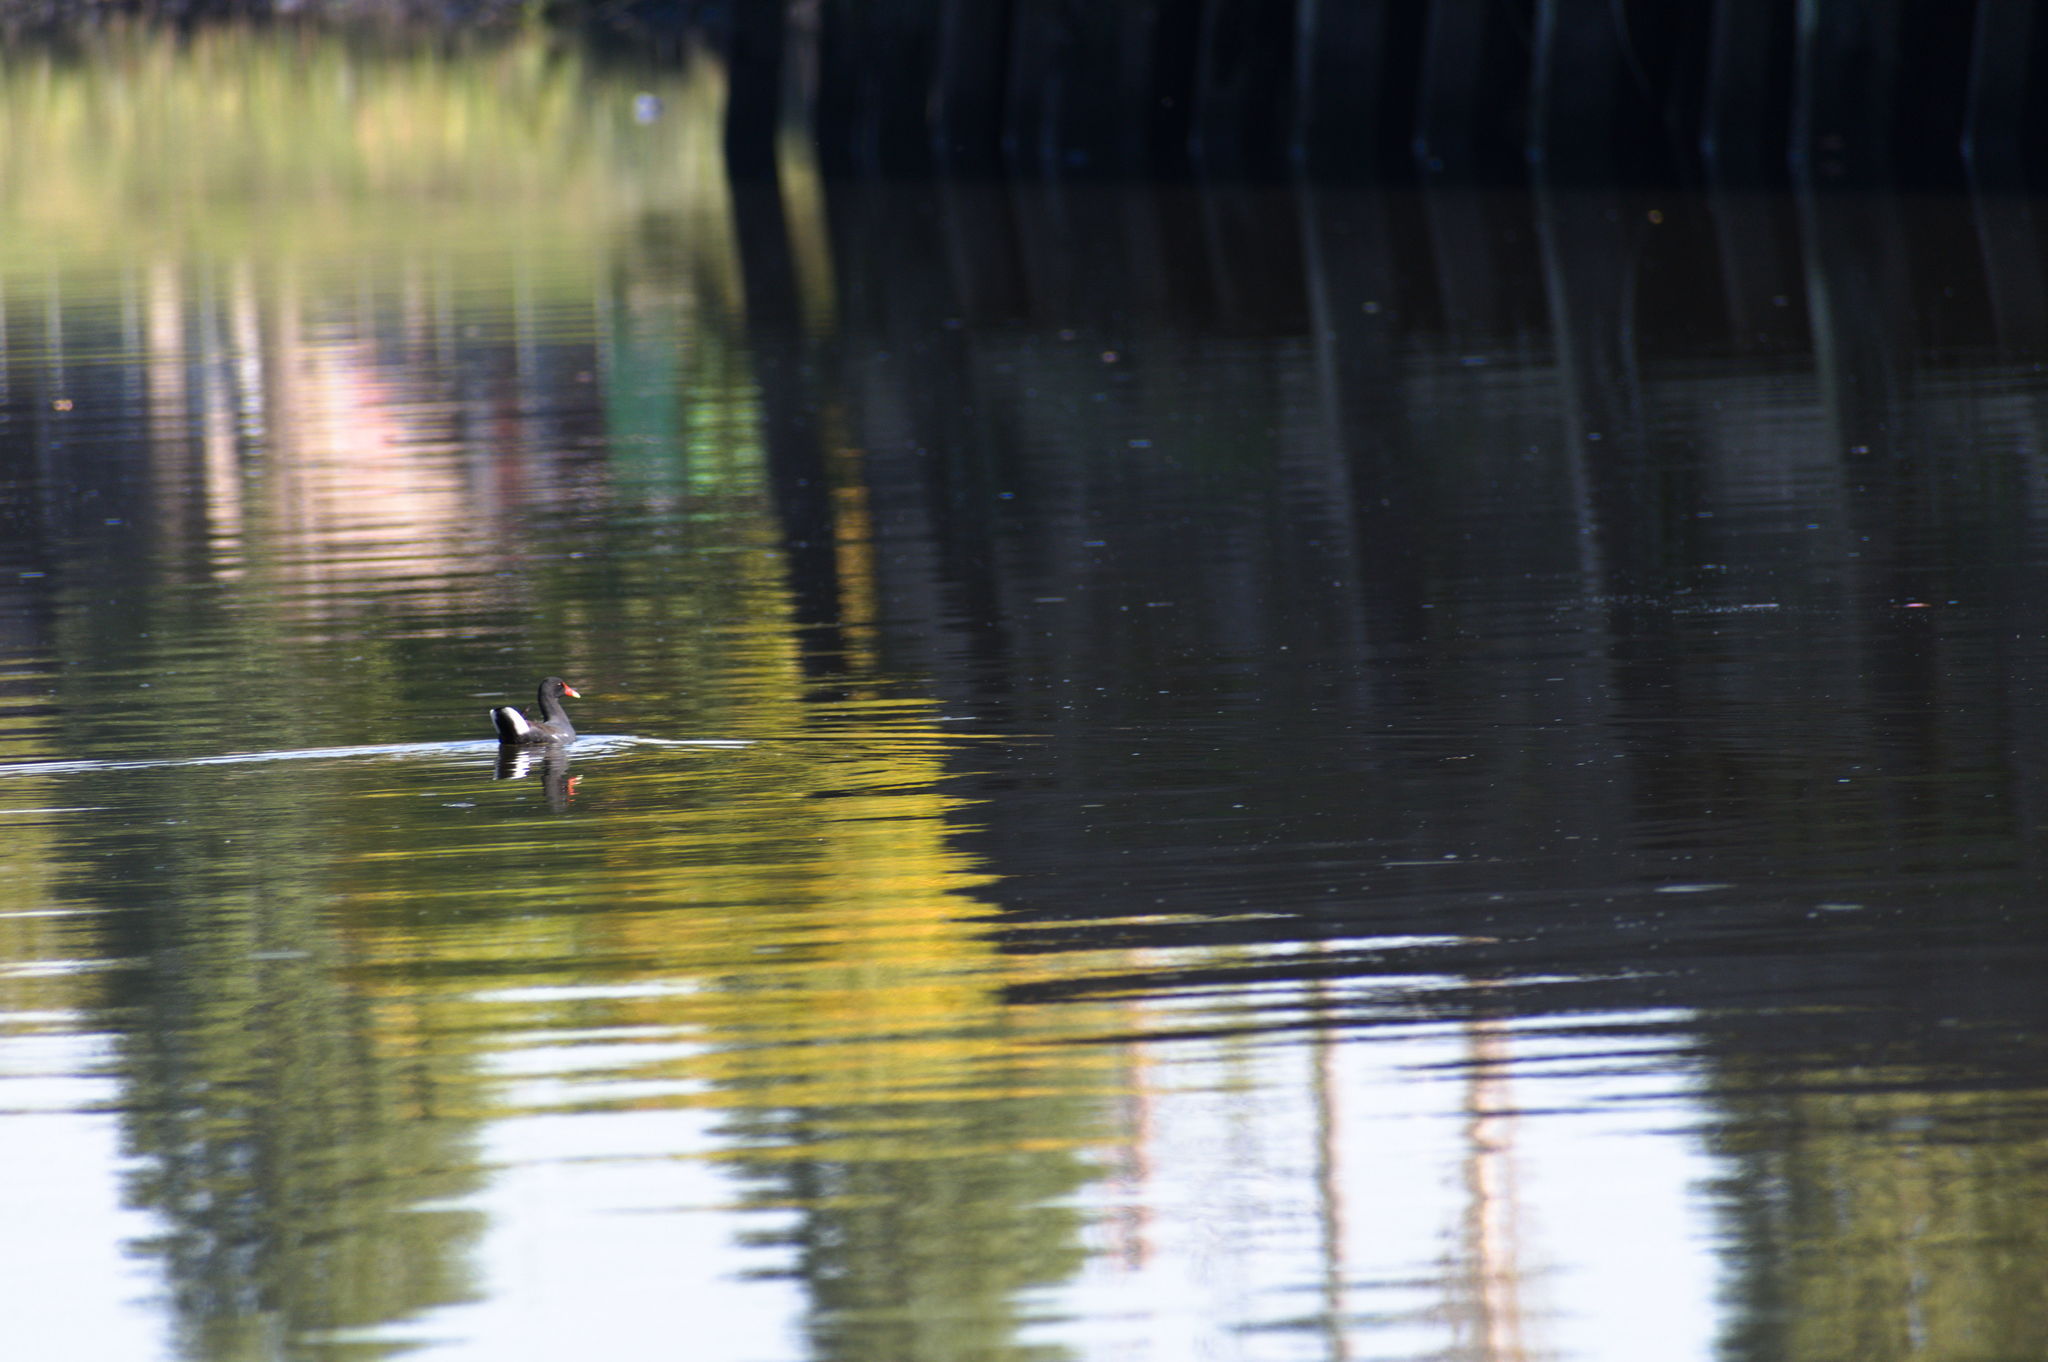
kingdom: Animalia
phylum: Chordata
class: Aves
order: Gruiformes
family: Rallidae
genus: Gallinula
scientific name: Gallinula chloropus
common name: Common moorhen
